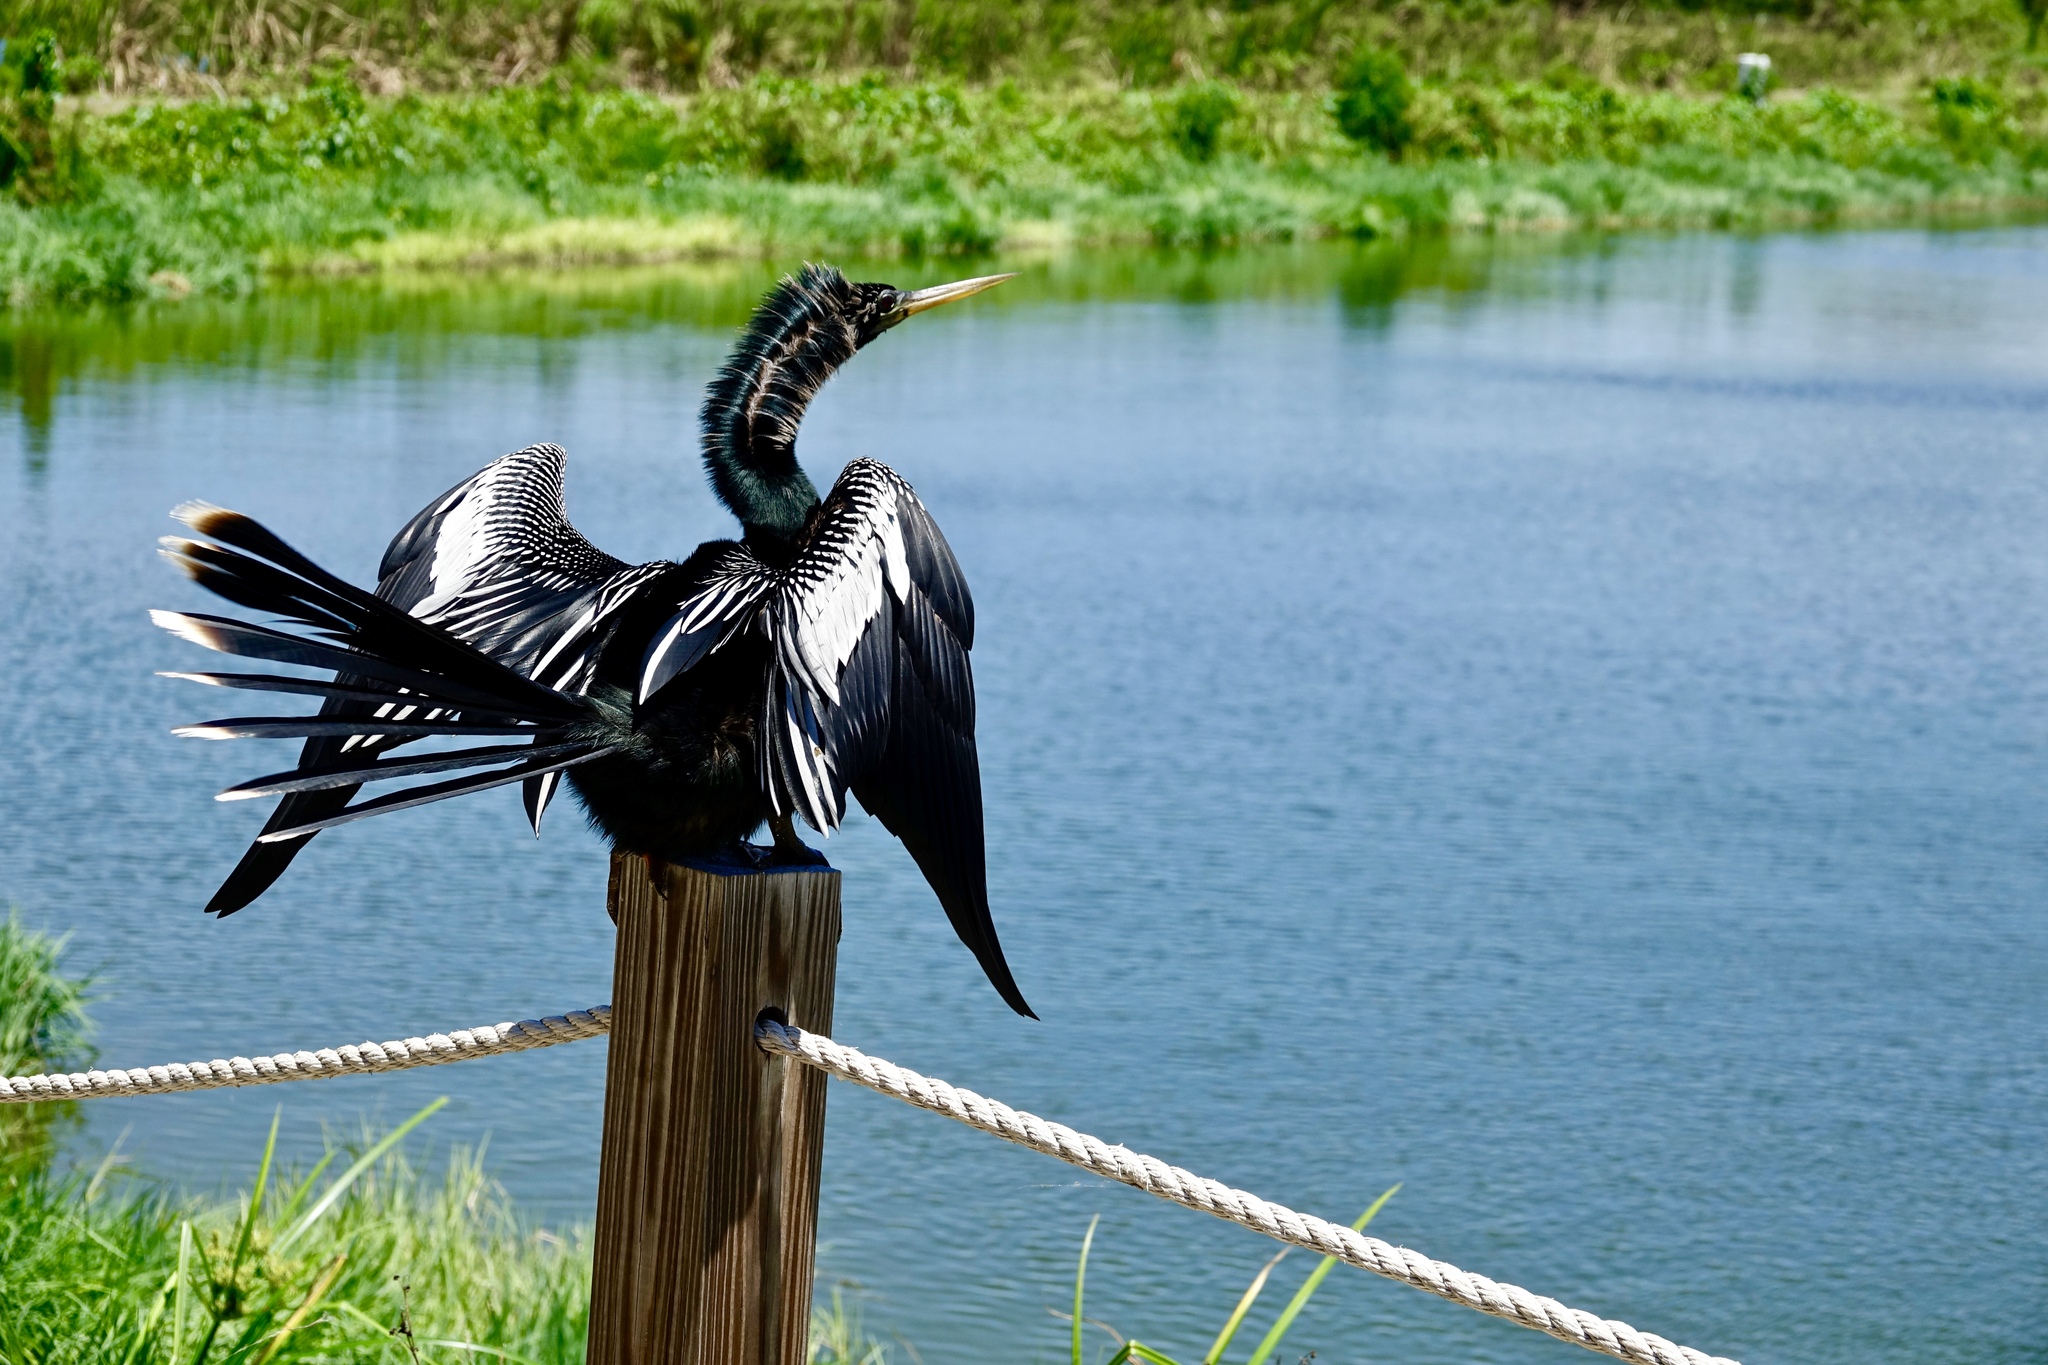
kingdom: Animalia
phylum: Chordata
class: Aves
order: Suliformes
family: Anhingidae
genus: Anhinga
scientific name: Anhinga anhinga
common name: Anhinga
